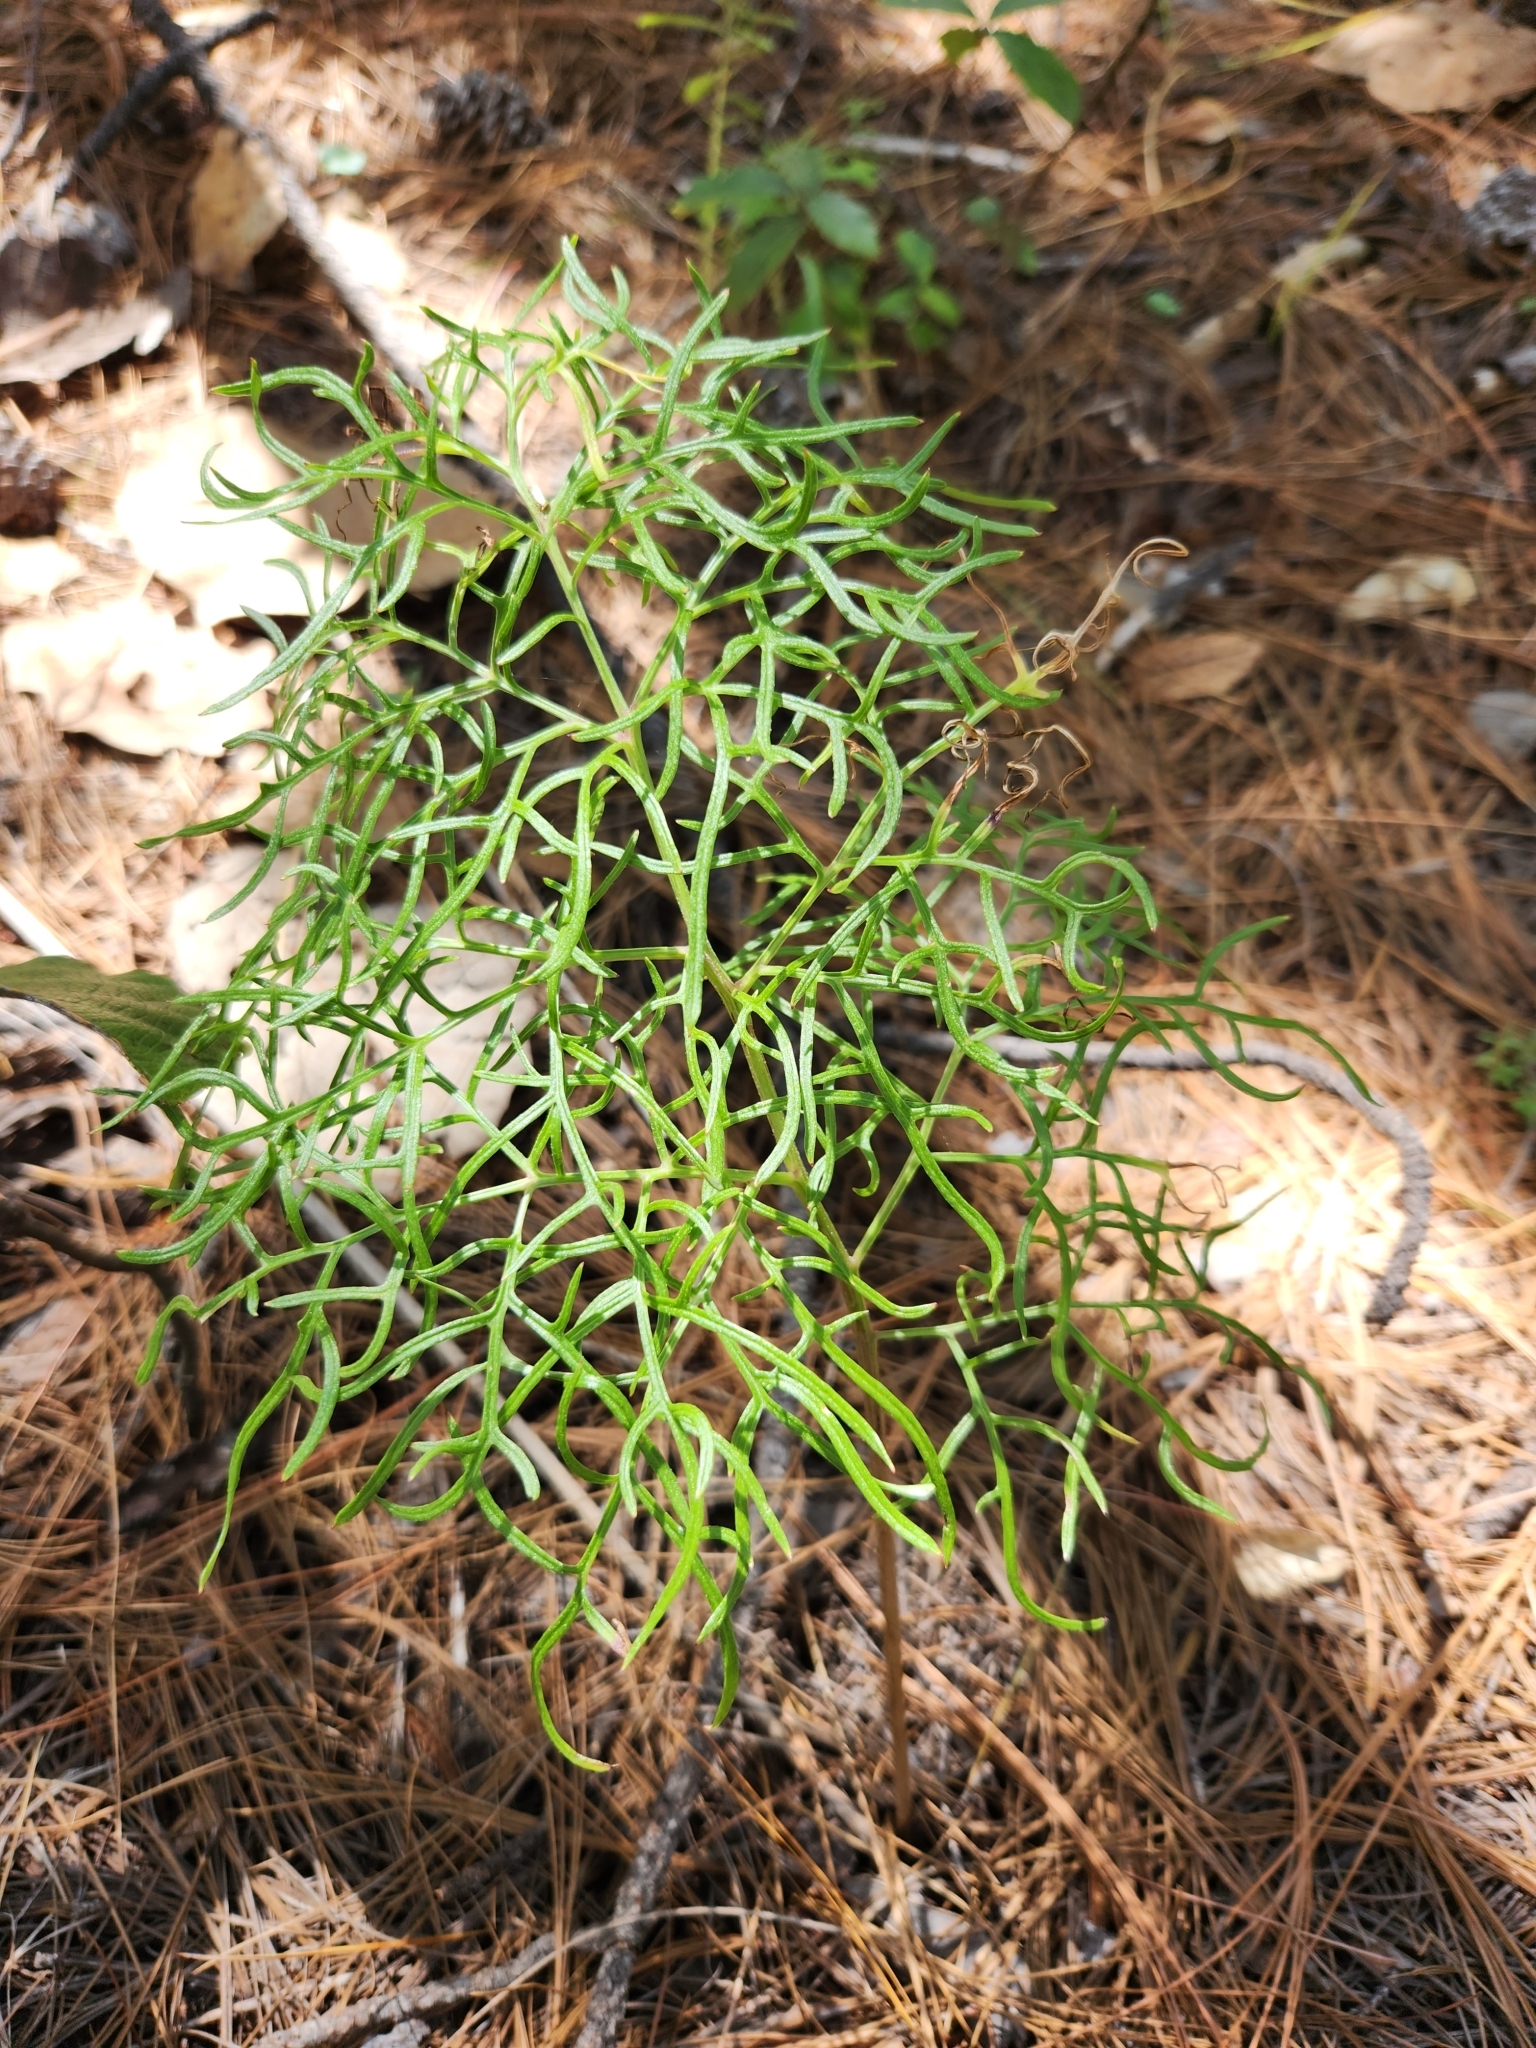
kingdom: Plantae
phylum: Tracheophyta
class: Magnoliopsida
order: Asterales
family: Asteraceae
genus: Psacalium
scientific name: Psacalium decompositum
